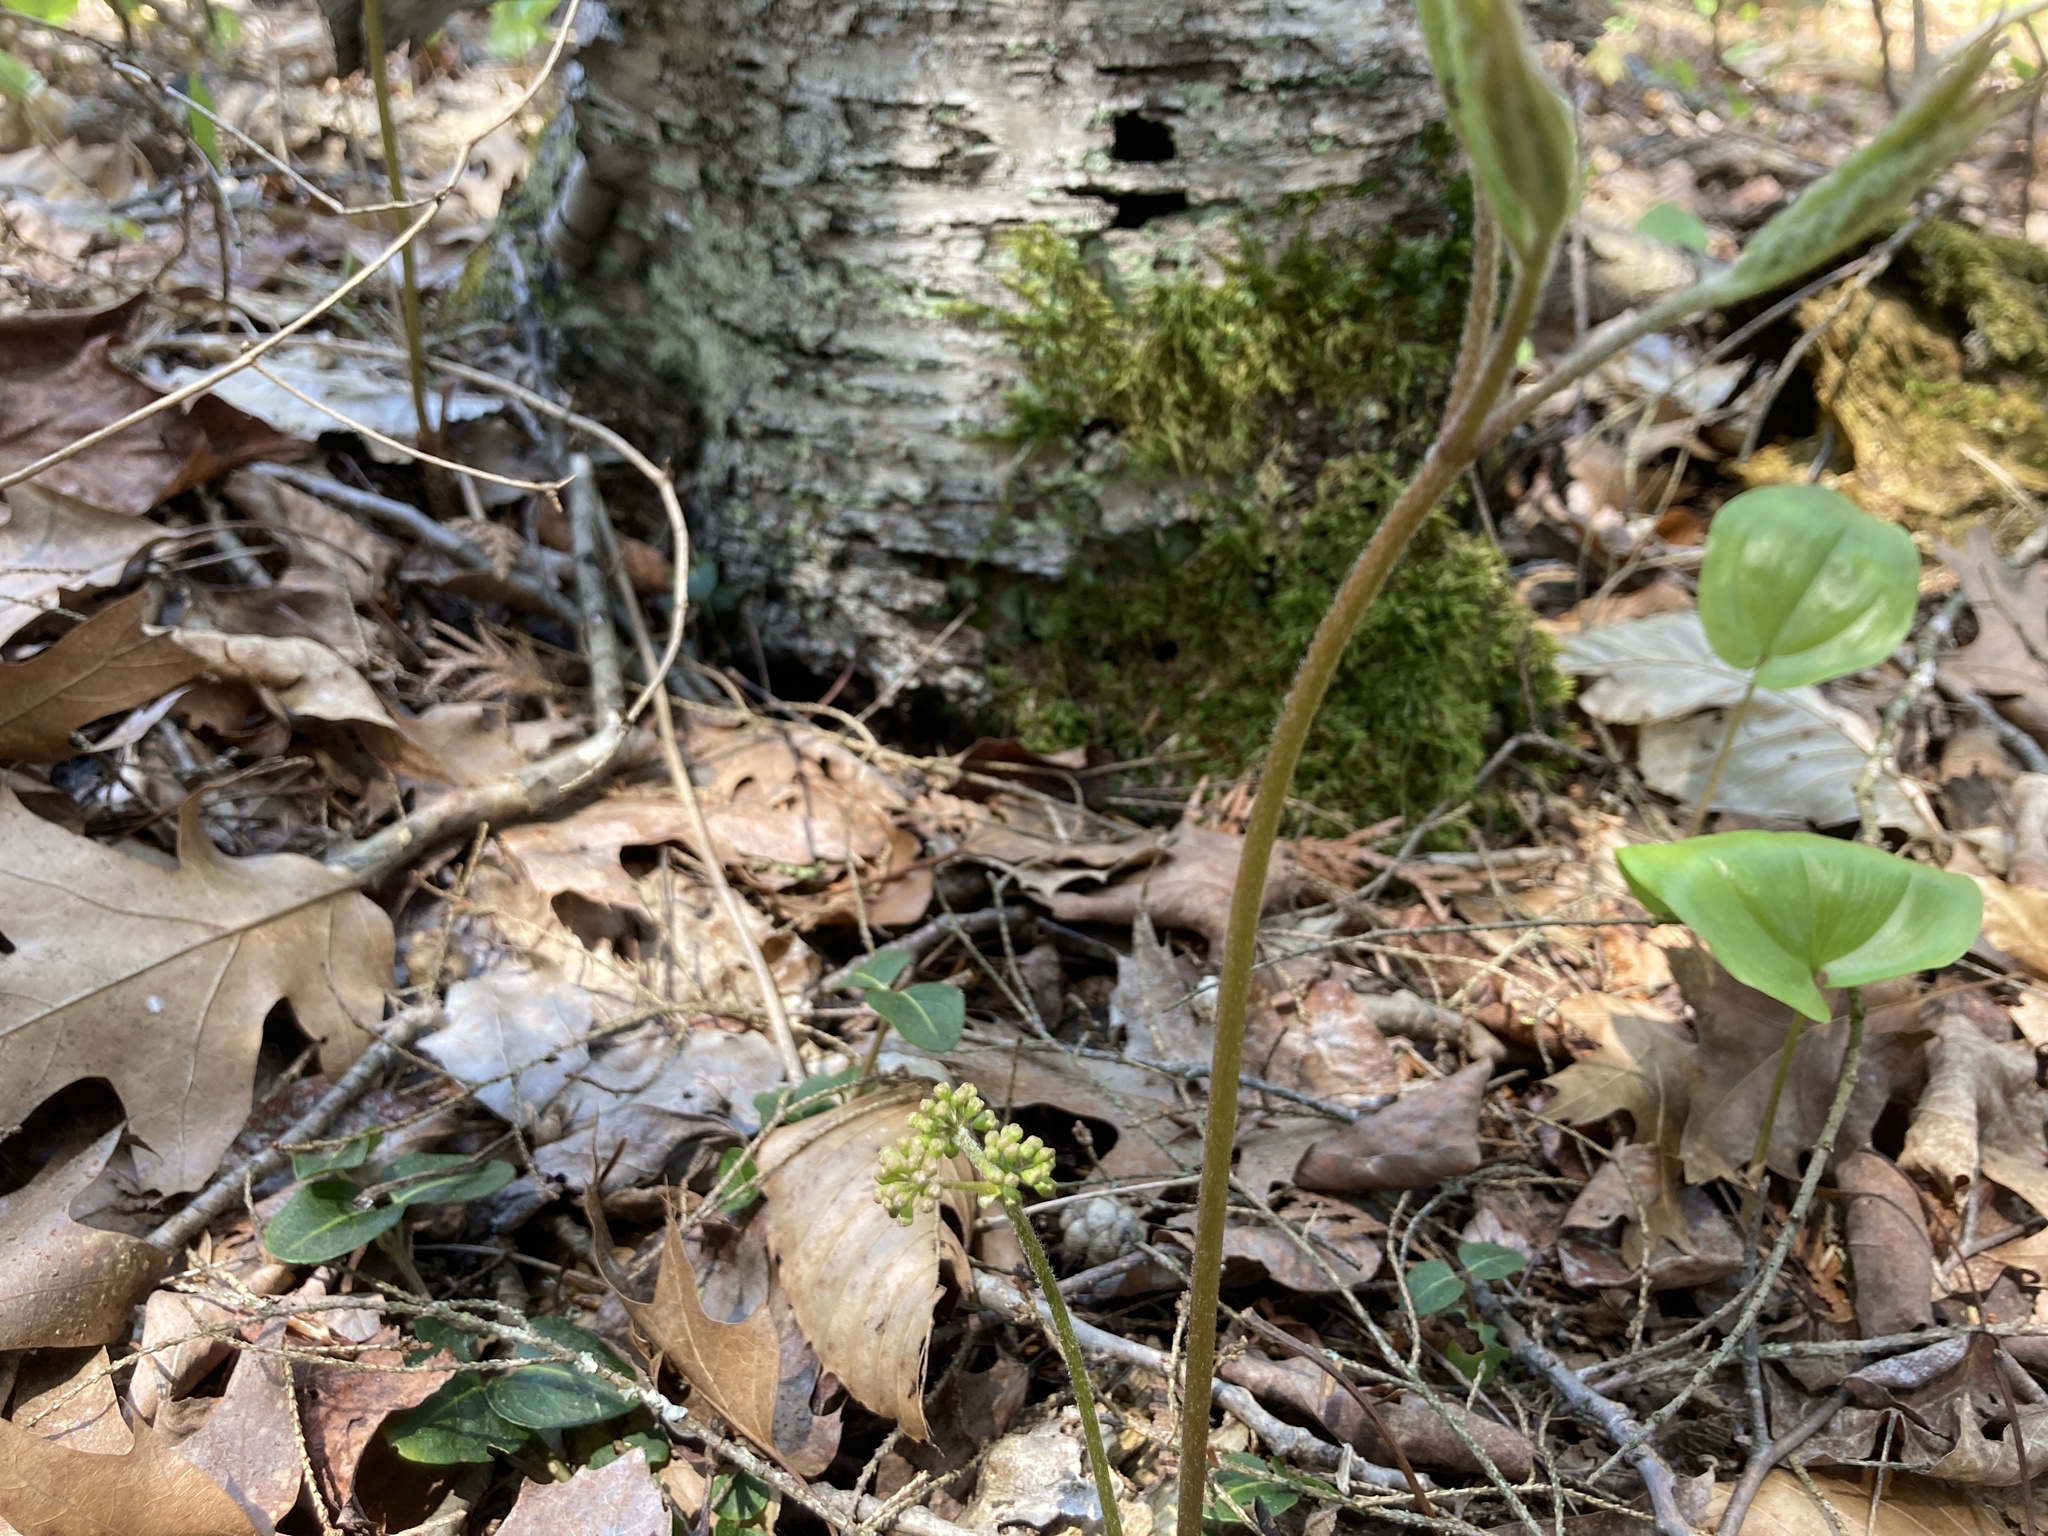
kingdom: Plantae
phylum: Tracheophyta
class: Magnoliopsida
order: Apiales
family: Araliaceae
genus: Aralia
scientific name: Aralia nudicaulis
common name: Wild sarsaparilla
